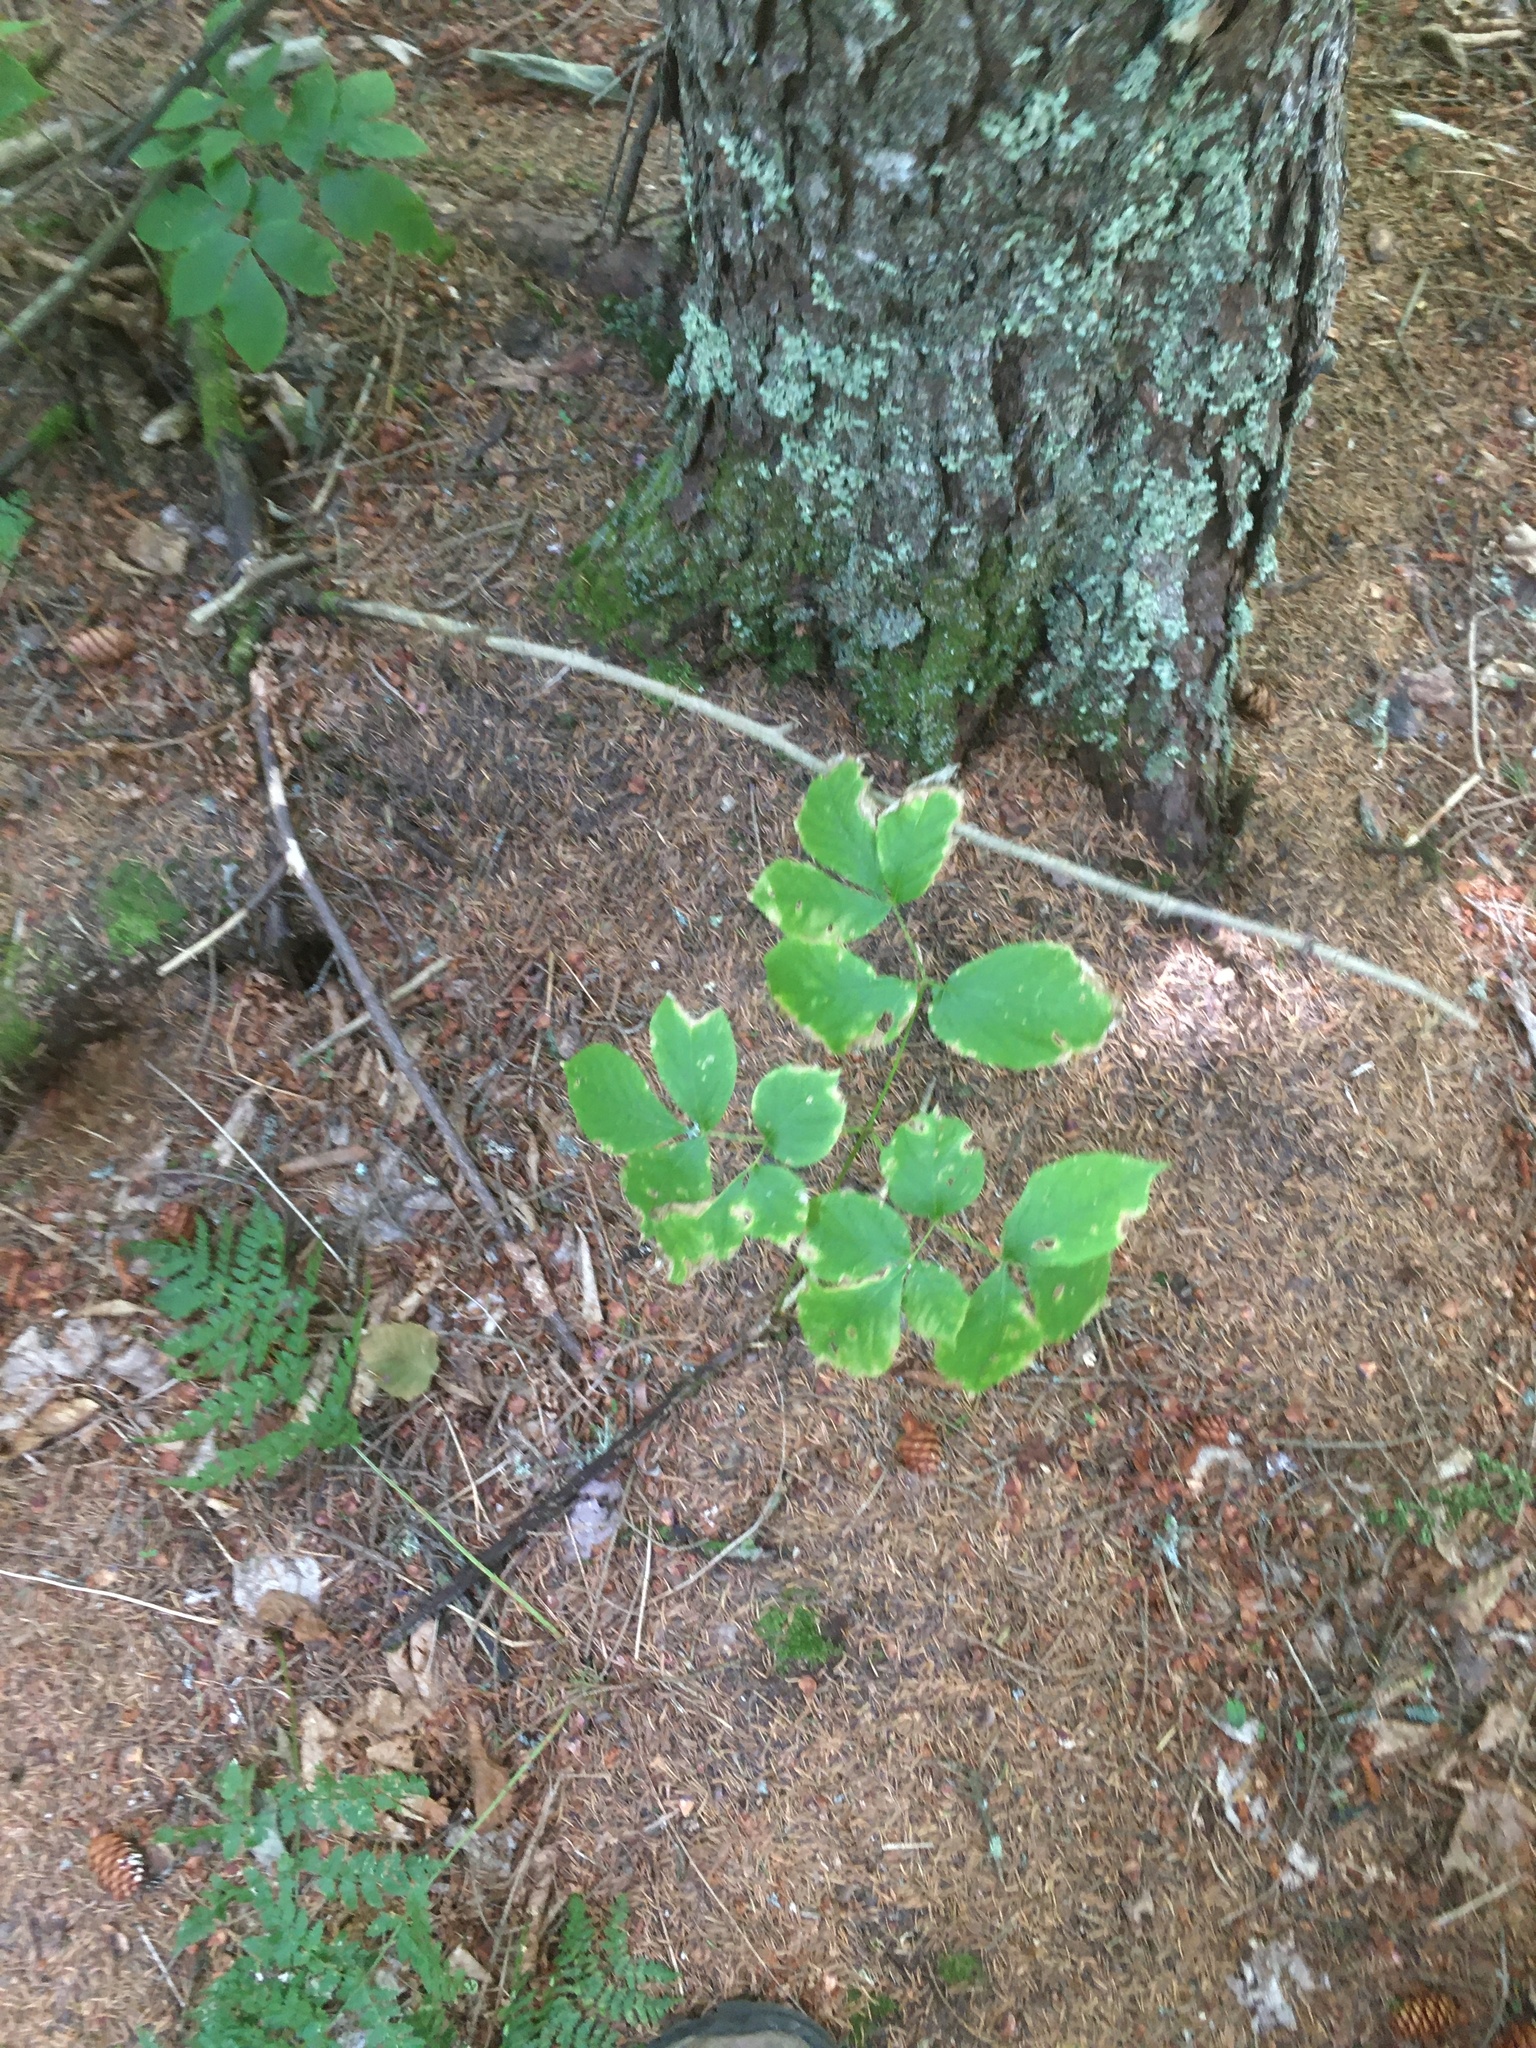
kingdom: Plantae
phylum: Tracheophyta
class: Magnoliopsida
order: Apiales
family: Araliaceae
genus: Aralia
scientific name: Aralia nudicaulis
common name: Wild sarsaparilla
